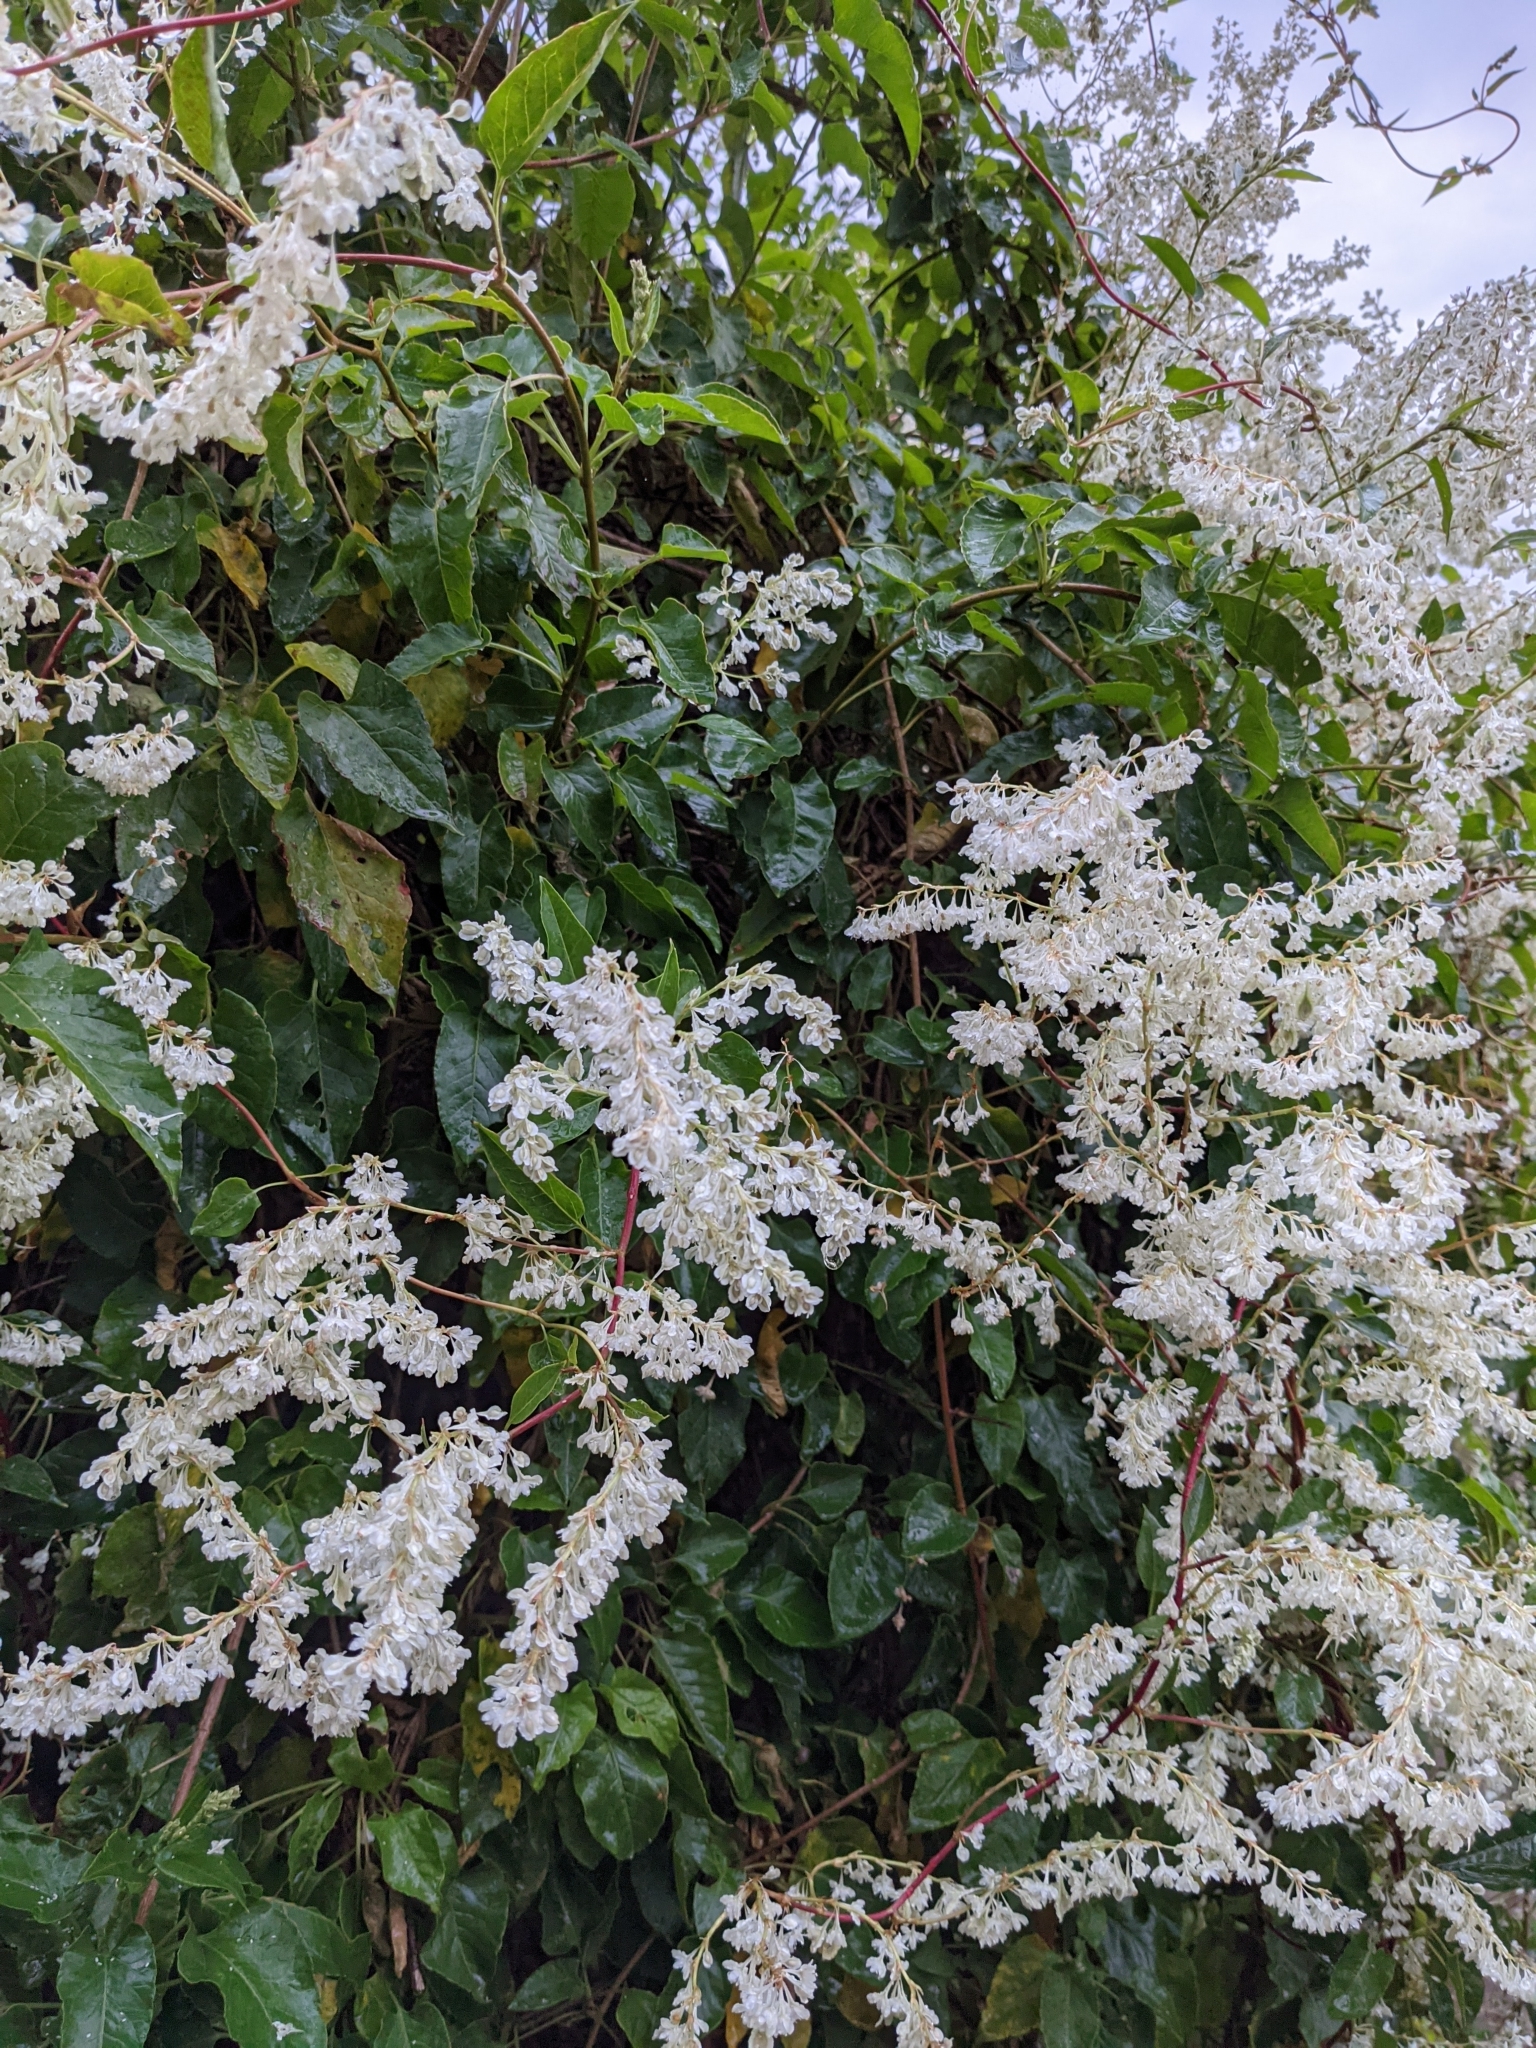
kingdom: Plantae
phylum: Tracheophyta
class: Magnoliopsida
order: Caryophyllales
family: Polygonaceae
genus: Fallopia
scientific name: Fallopia baldschuanica
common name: Russian-vine
